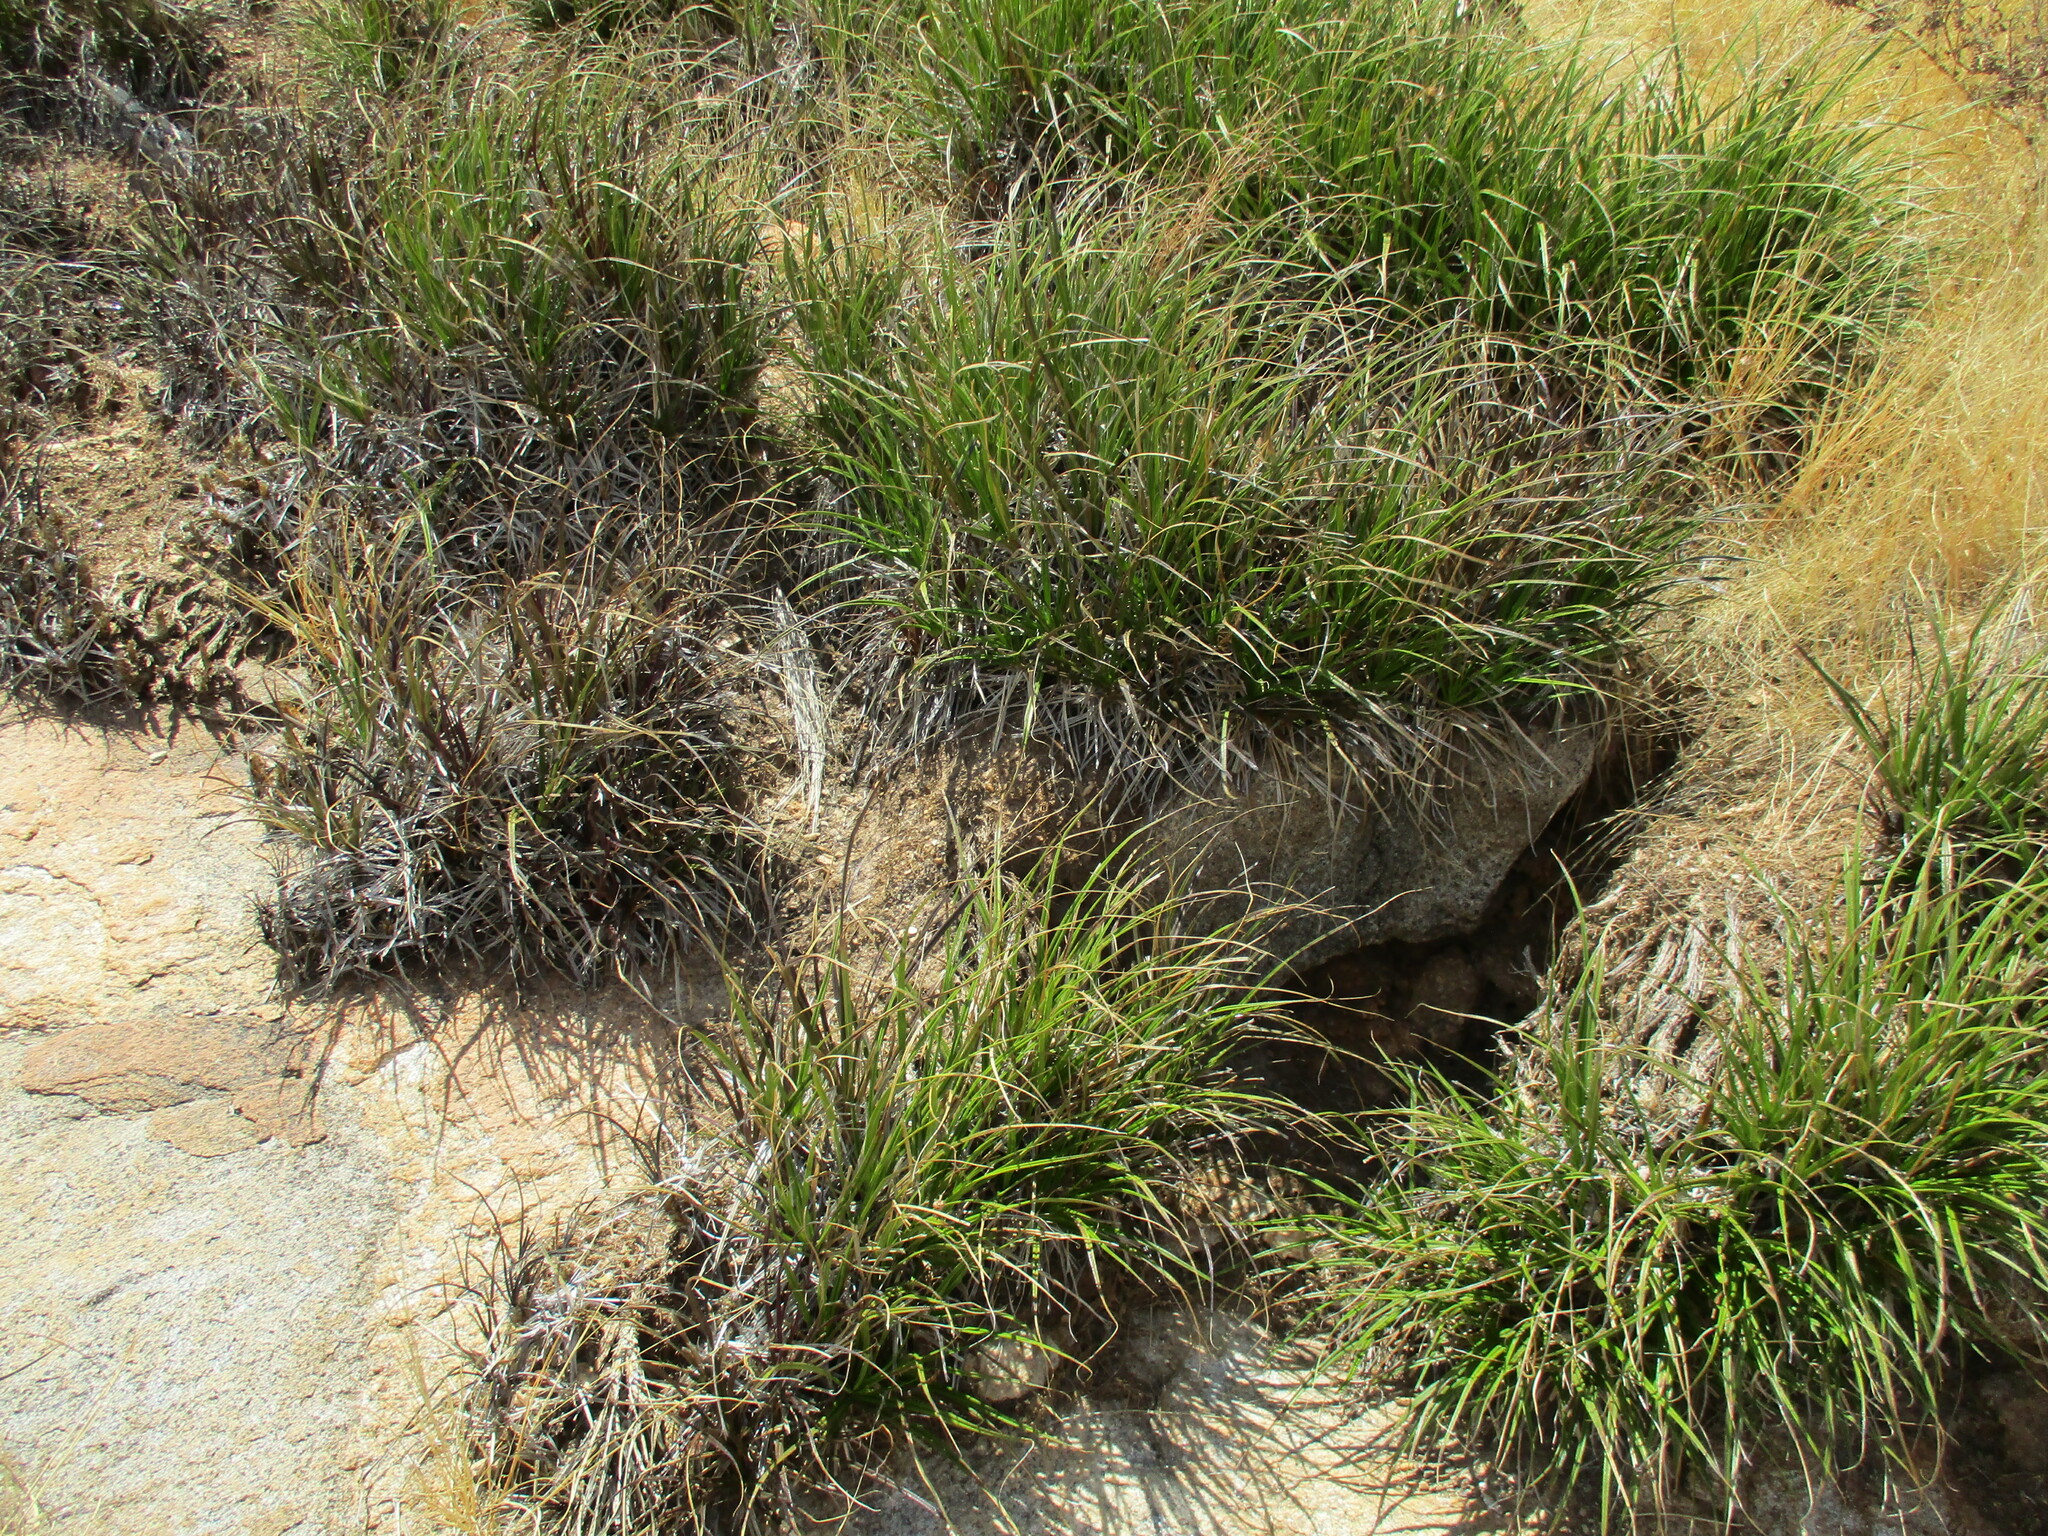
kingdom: Plantae
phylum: Tracheophyta
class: Liliopsida
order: Pandanales
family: Velloziaceae
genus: Xerophyta
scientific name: Xerophyta hereroensis
